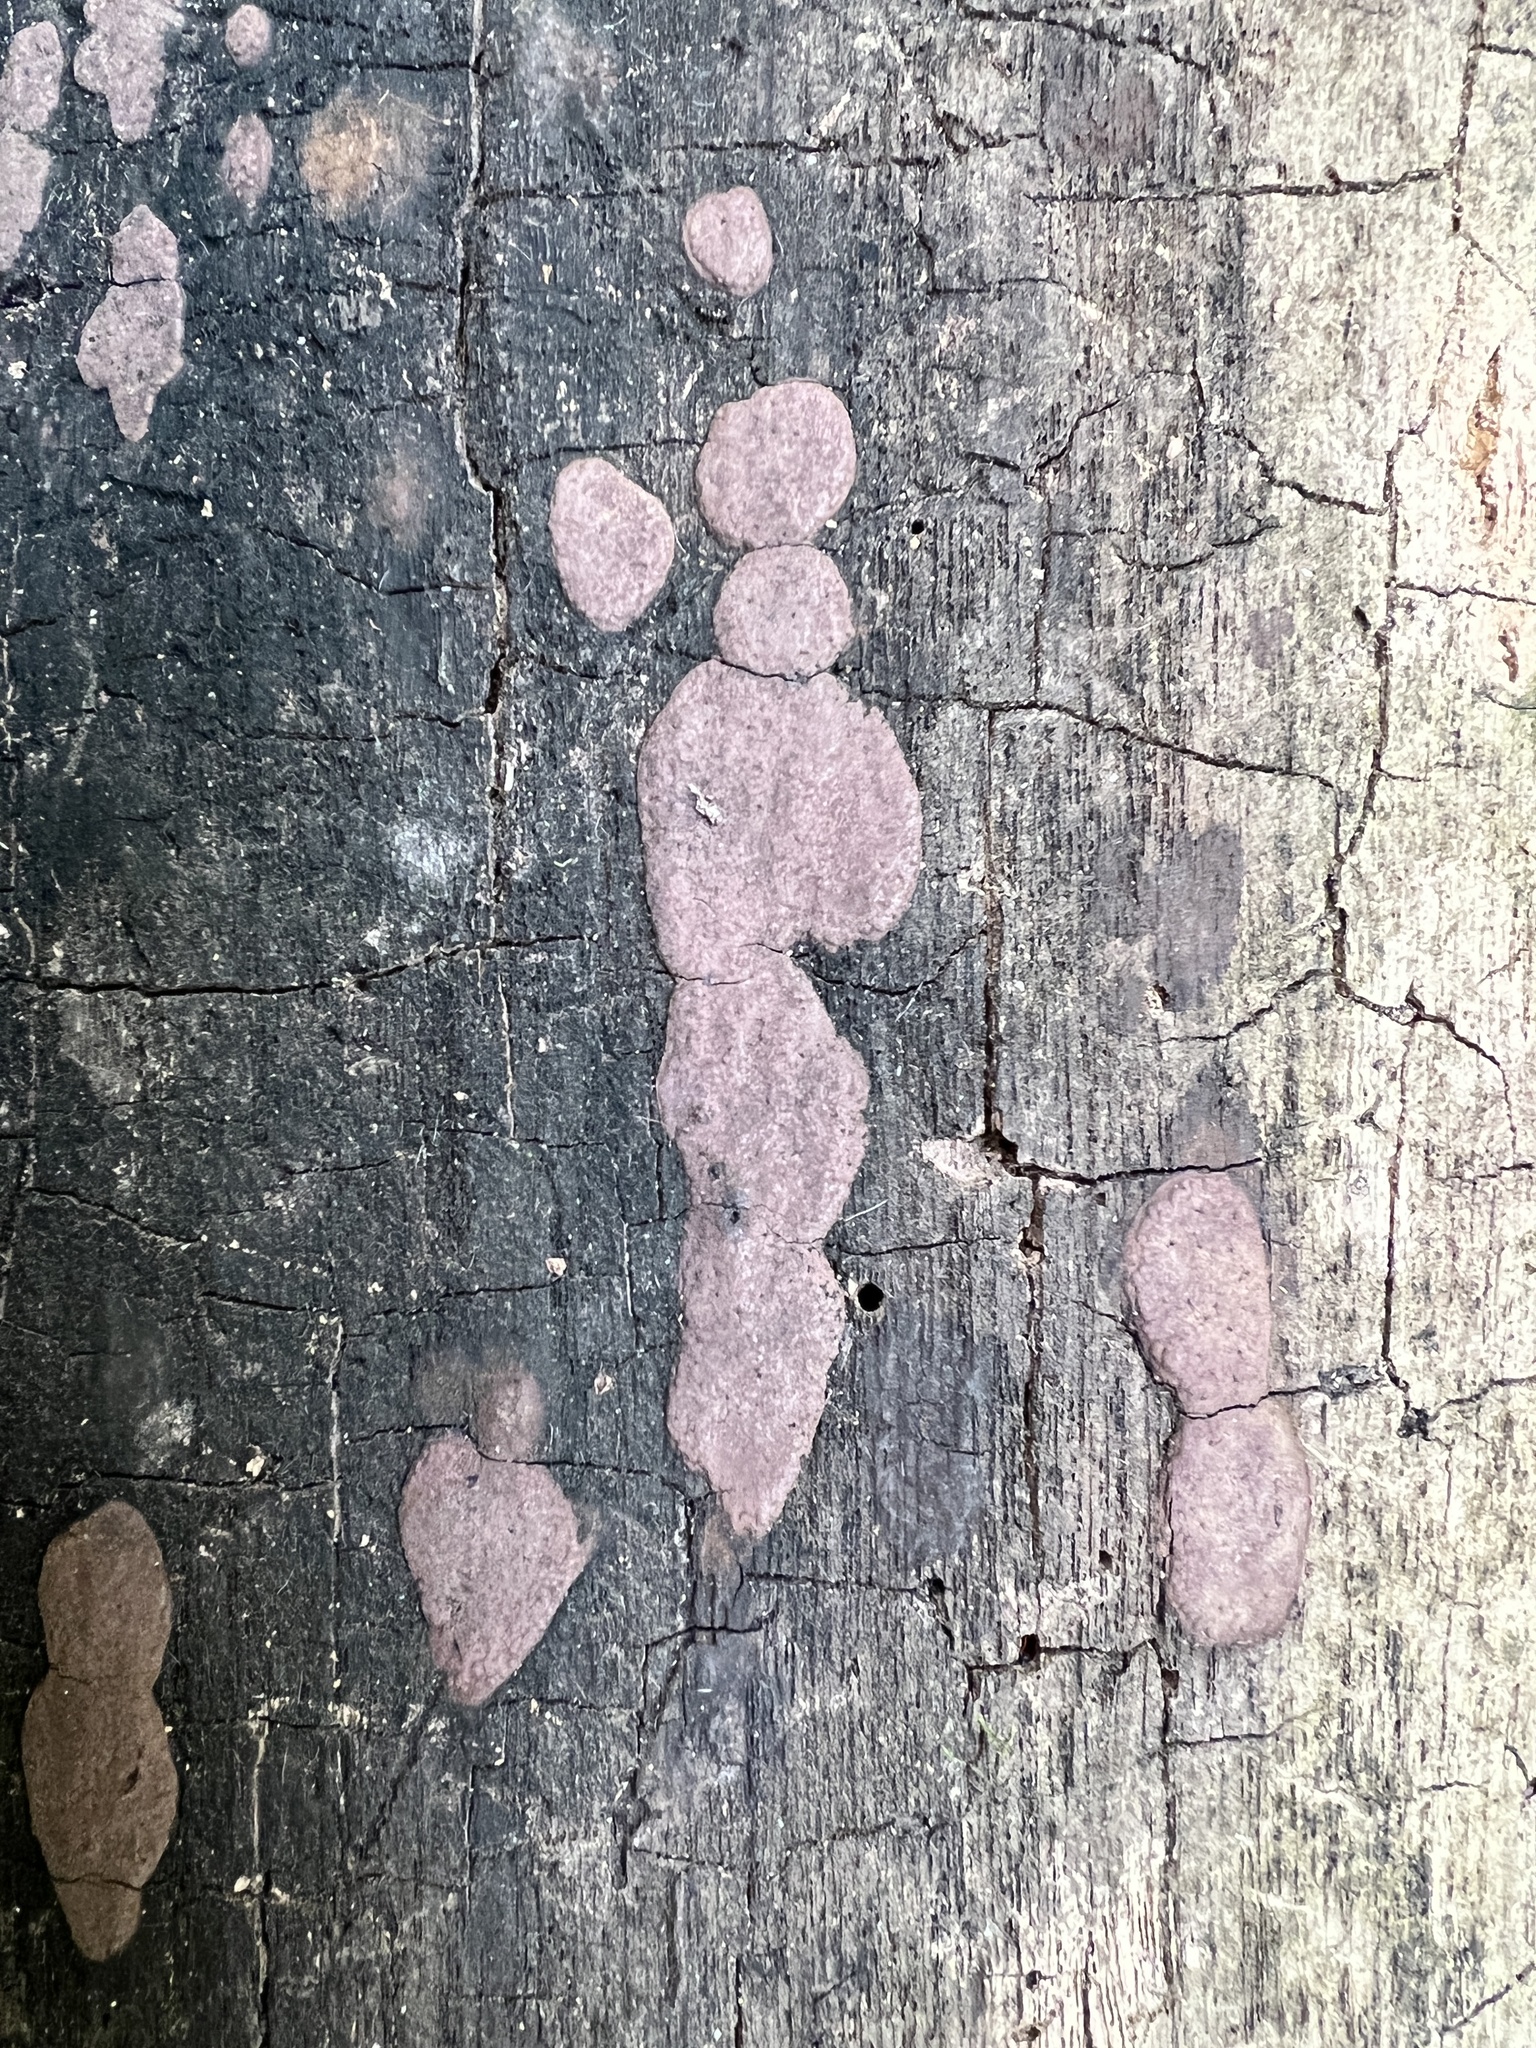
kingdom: Fungi
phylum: Ascomycota
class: Sordariomycetes
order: Xylariales
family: Hypoxylaceae
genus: Hypoxylon
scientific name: Hypoxylon rubiginosum
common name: Rusty woodwart
